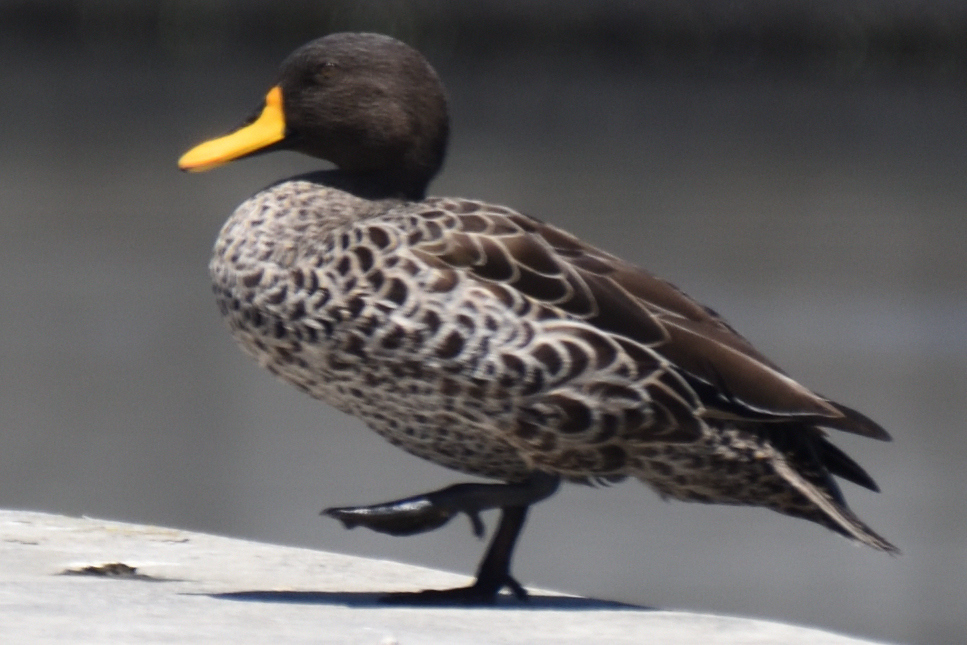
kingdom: Animalia
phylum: Chordata
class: Aves
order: Anseriformes
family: Anatidae
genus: Anas
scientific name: Anas undulata
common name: Yellow-billed duck
